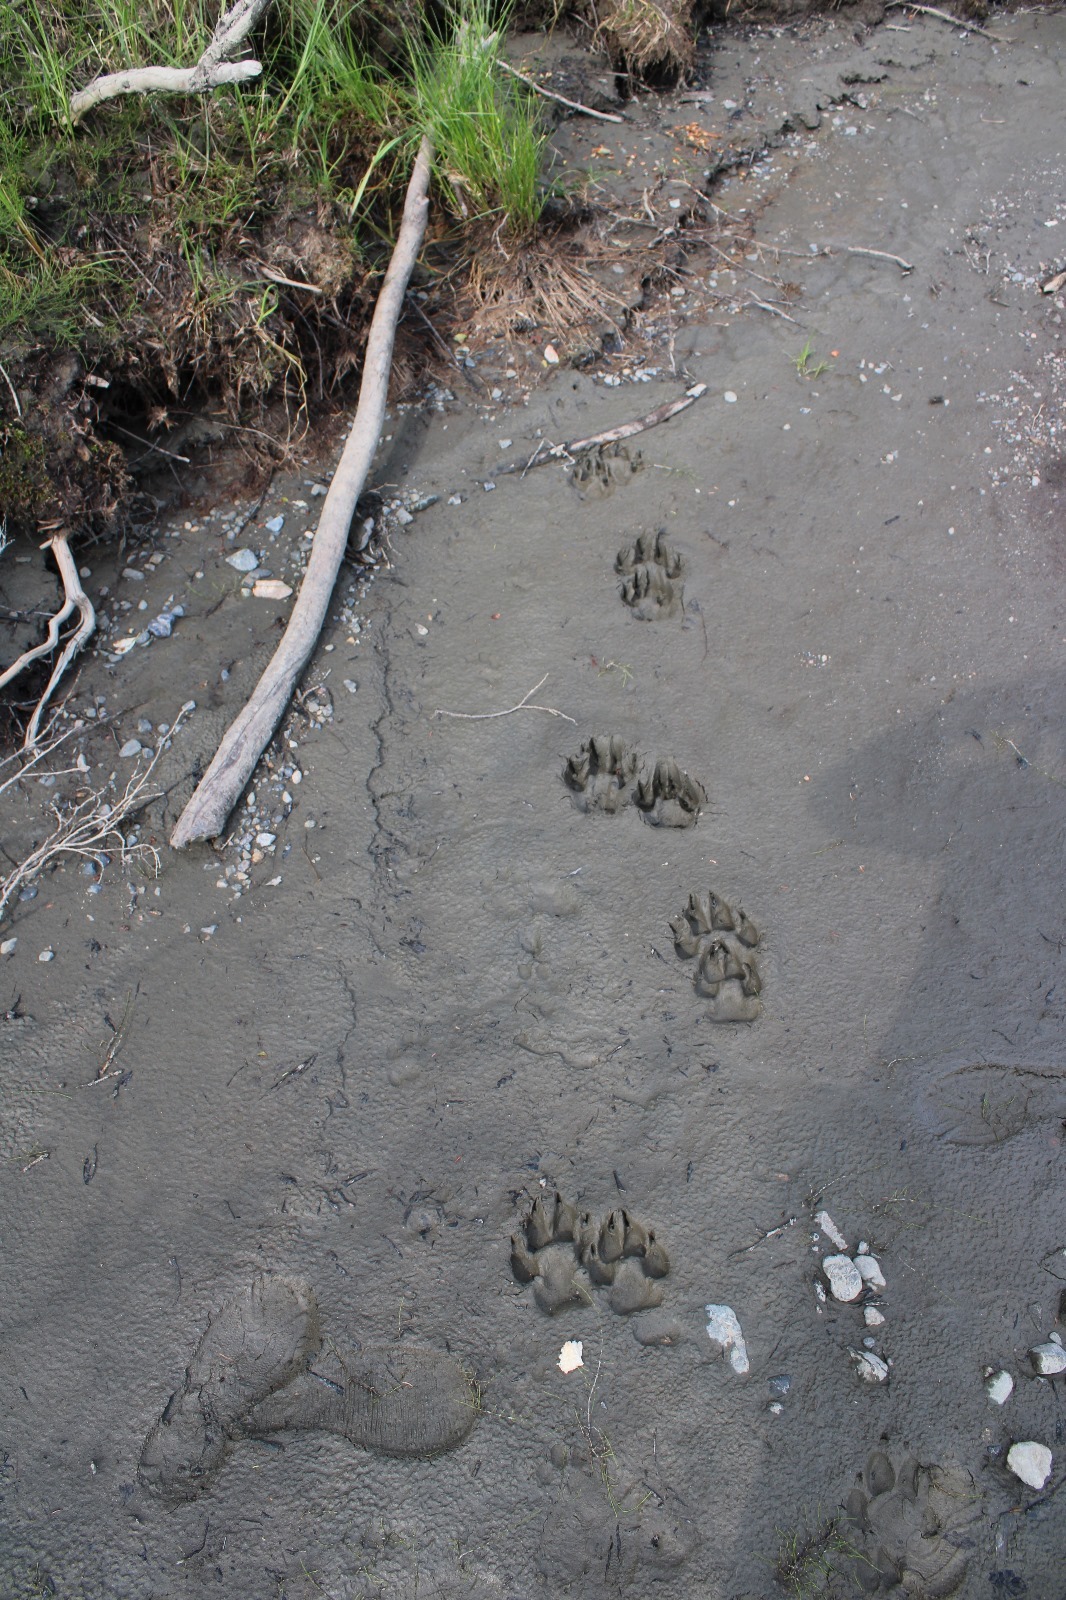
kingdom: Animalia
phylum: Chordata
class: Mammalia
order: Carnivora
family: Canidae
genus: Canis
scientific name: Canis lupus
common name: Gray wolf
